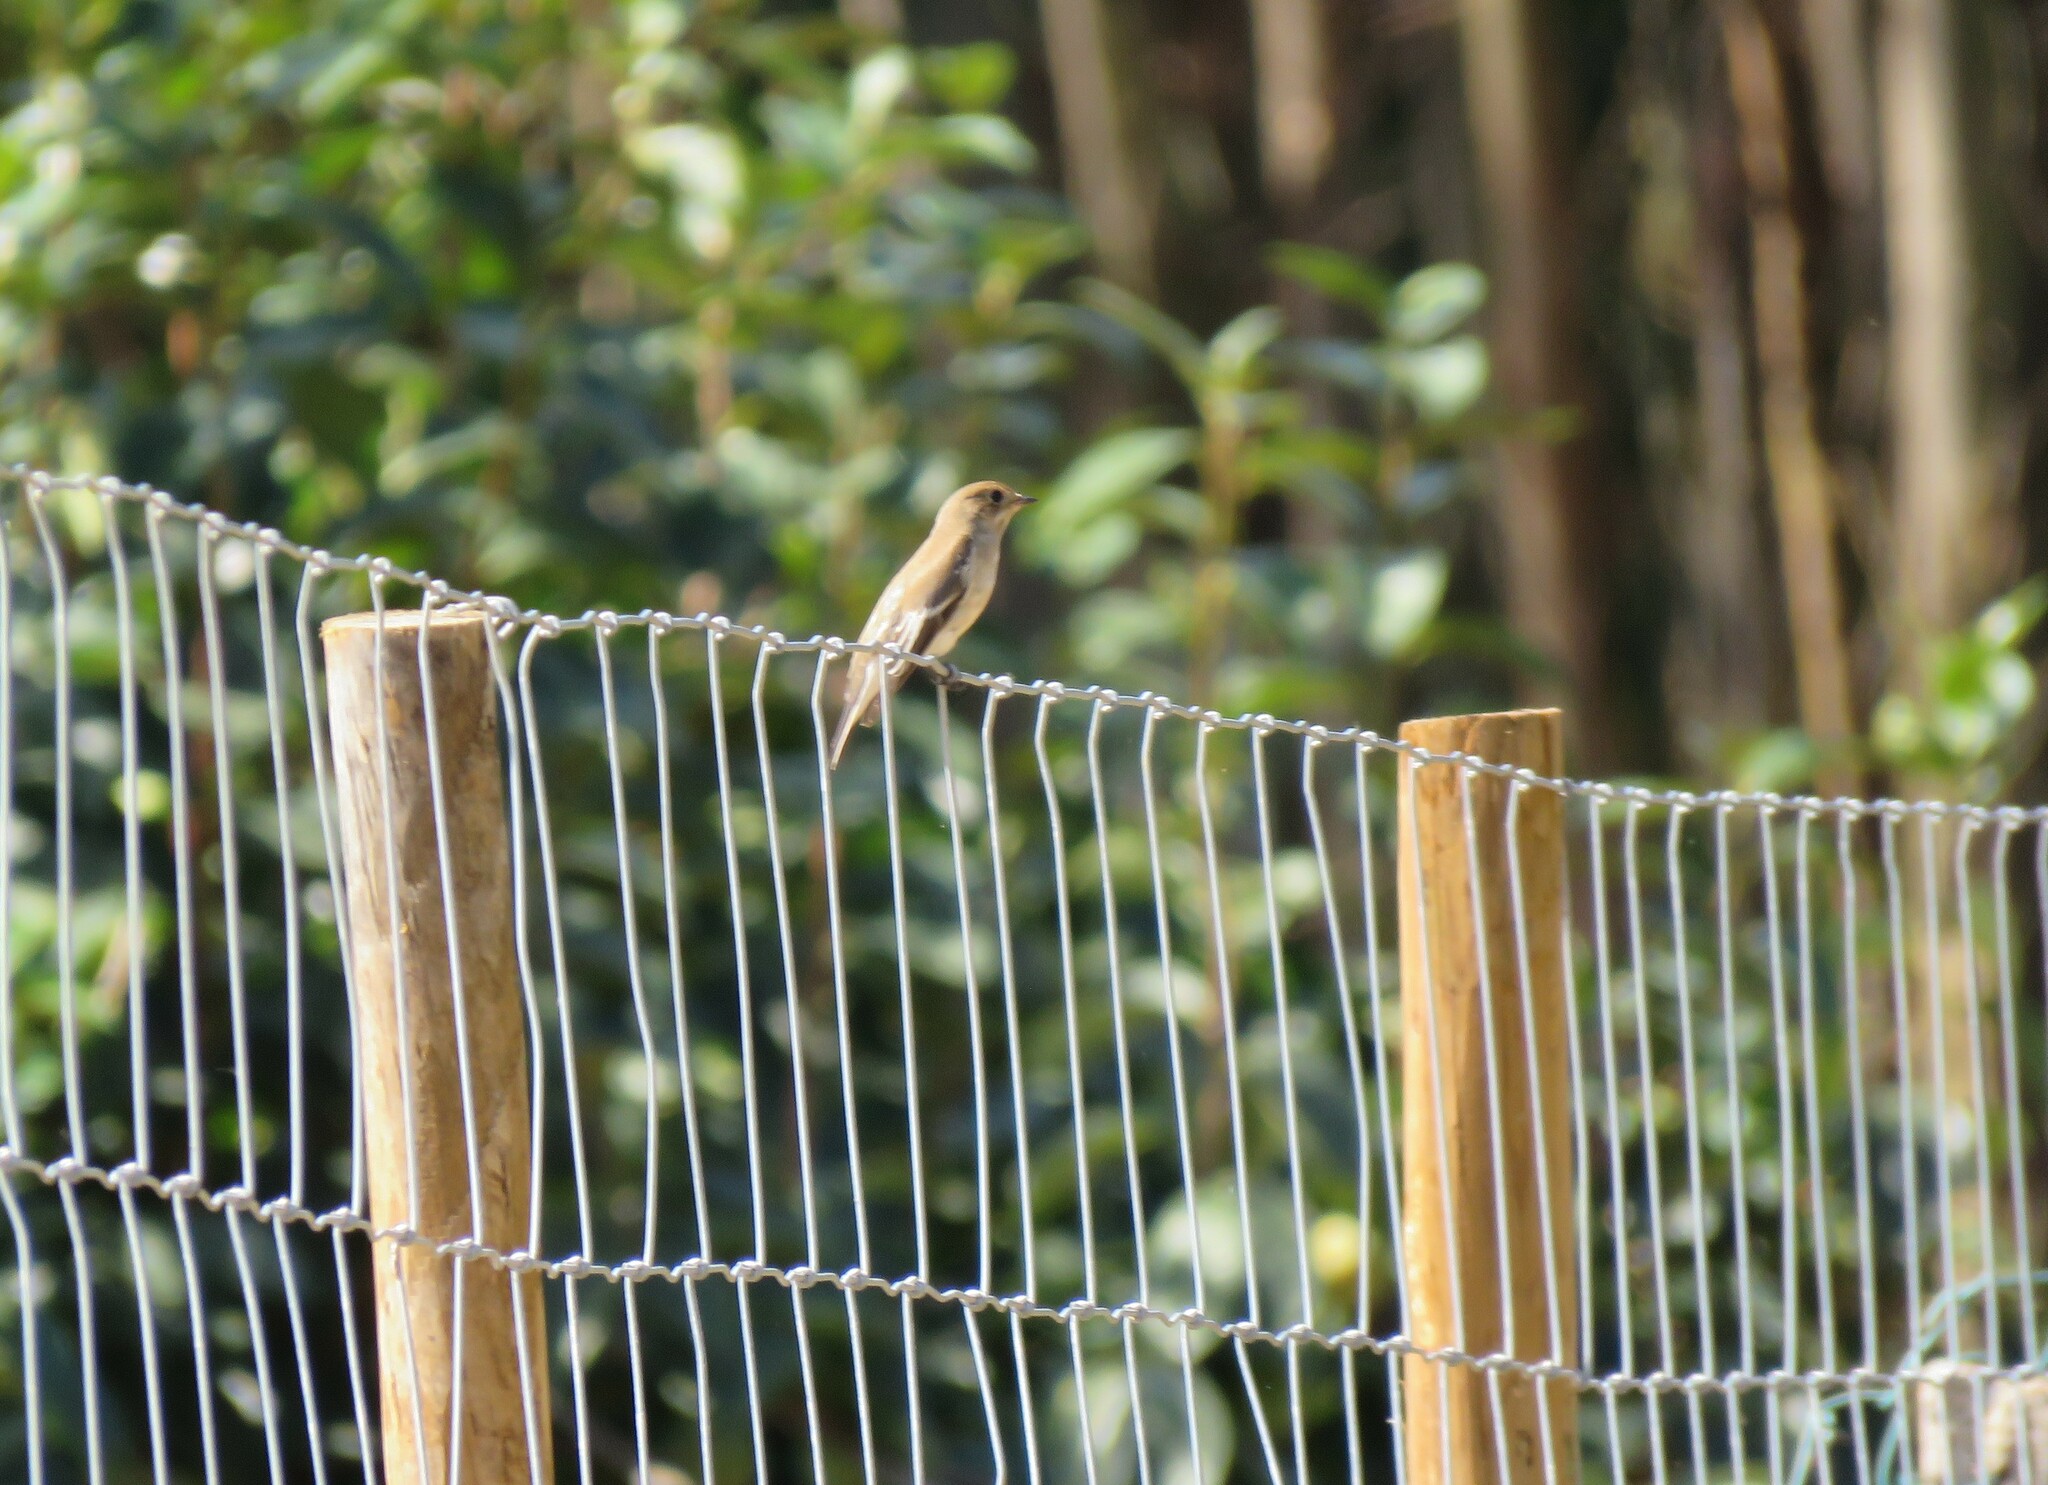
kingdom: Animalia
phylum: Chordata
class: Aves
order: Passeriformes
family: Muscicapidae
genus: Ficedula
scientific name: Ficedula hypoleuca
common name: European pied flycatcher
